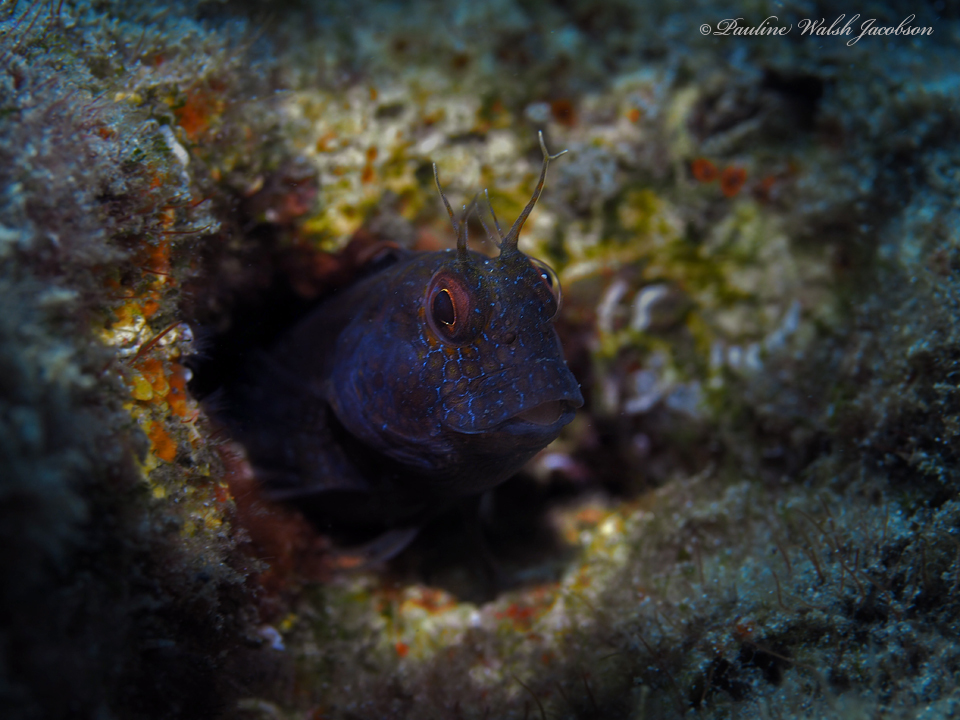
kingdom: Animalia
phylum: Chordata
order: Perciformes
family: Blenniidae
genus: Parablennius
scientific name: Parablennius marmoreus
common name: Seaweed blenny
